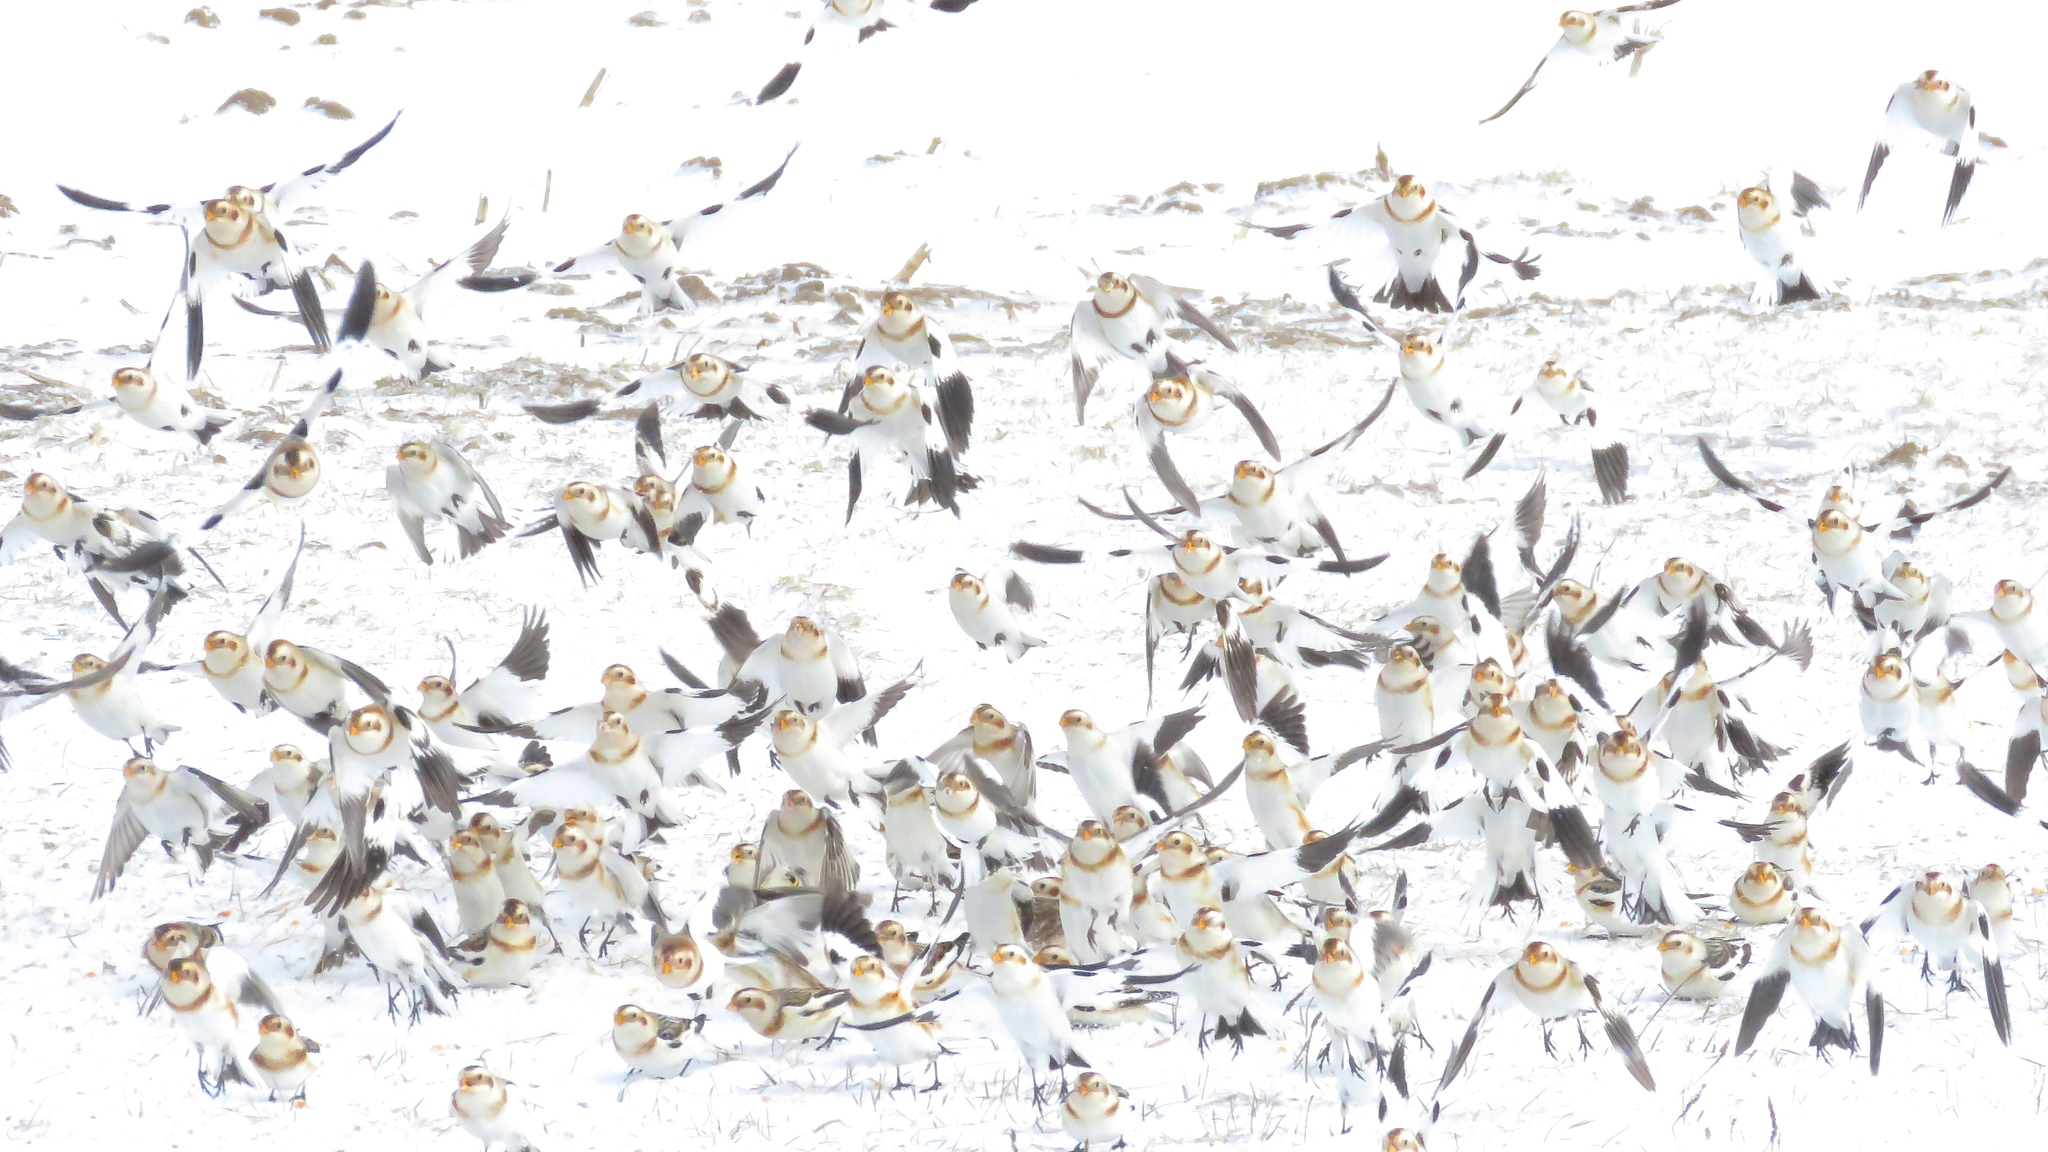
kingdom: Animalia
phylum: Chordata
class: Aves
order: Passeriformes
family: Calcariidae
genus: Plectrophenax
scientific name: Plectrophenax nivalis
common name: Snow bunting
